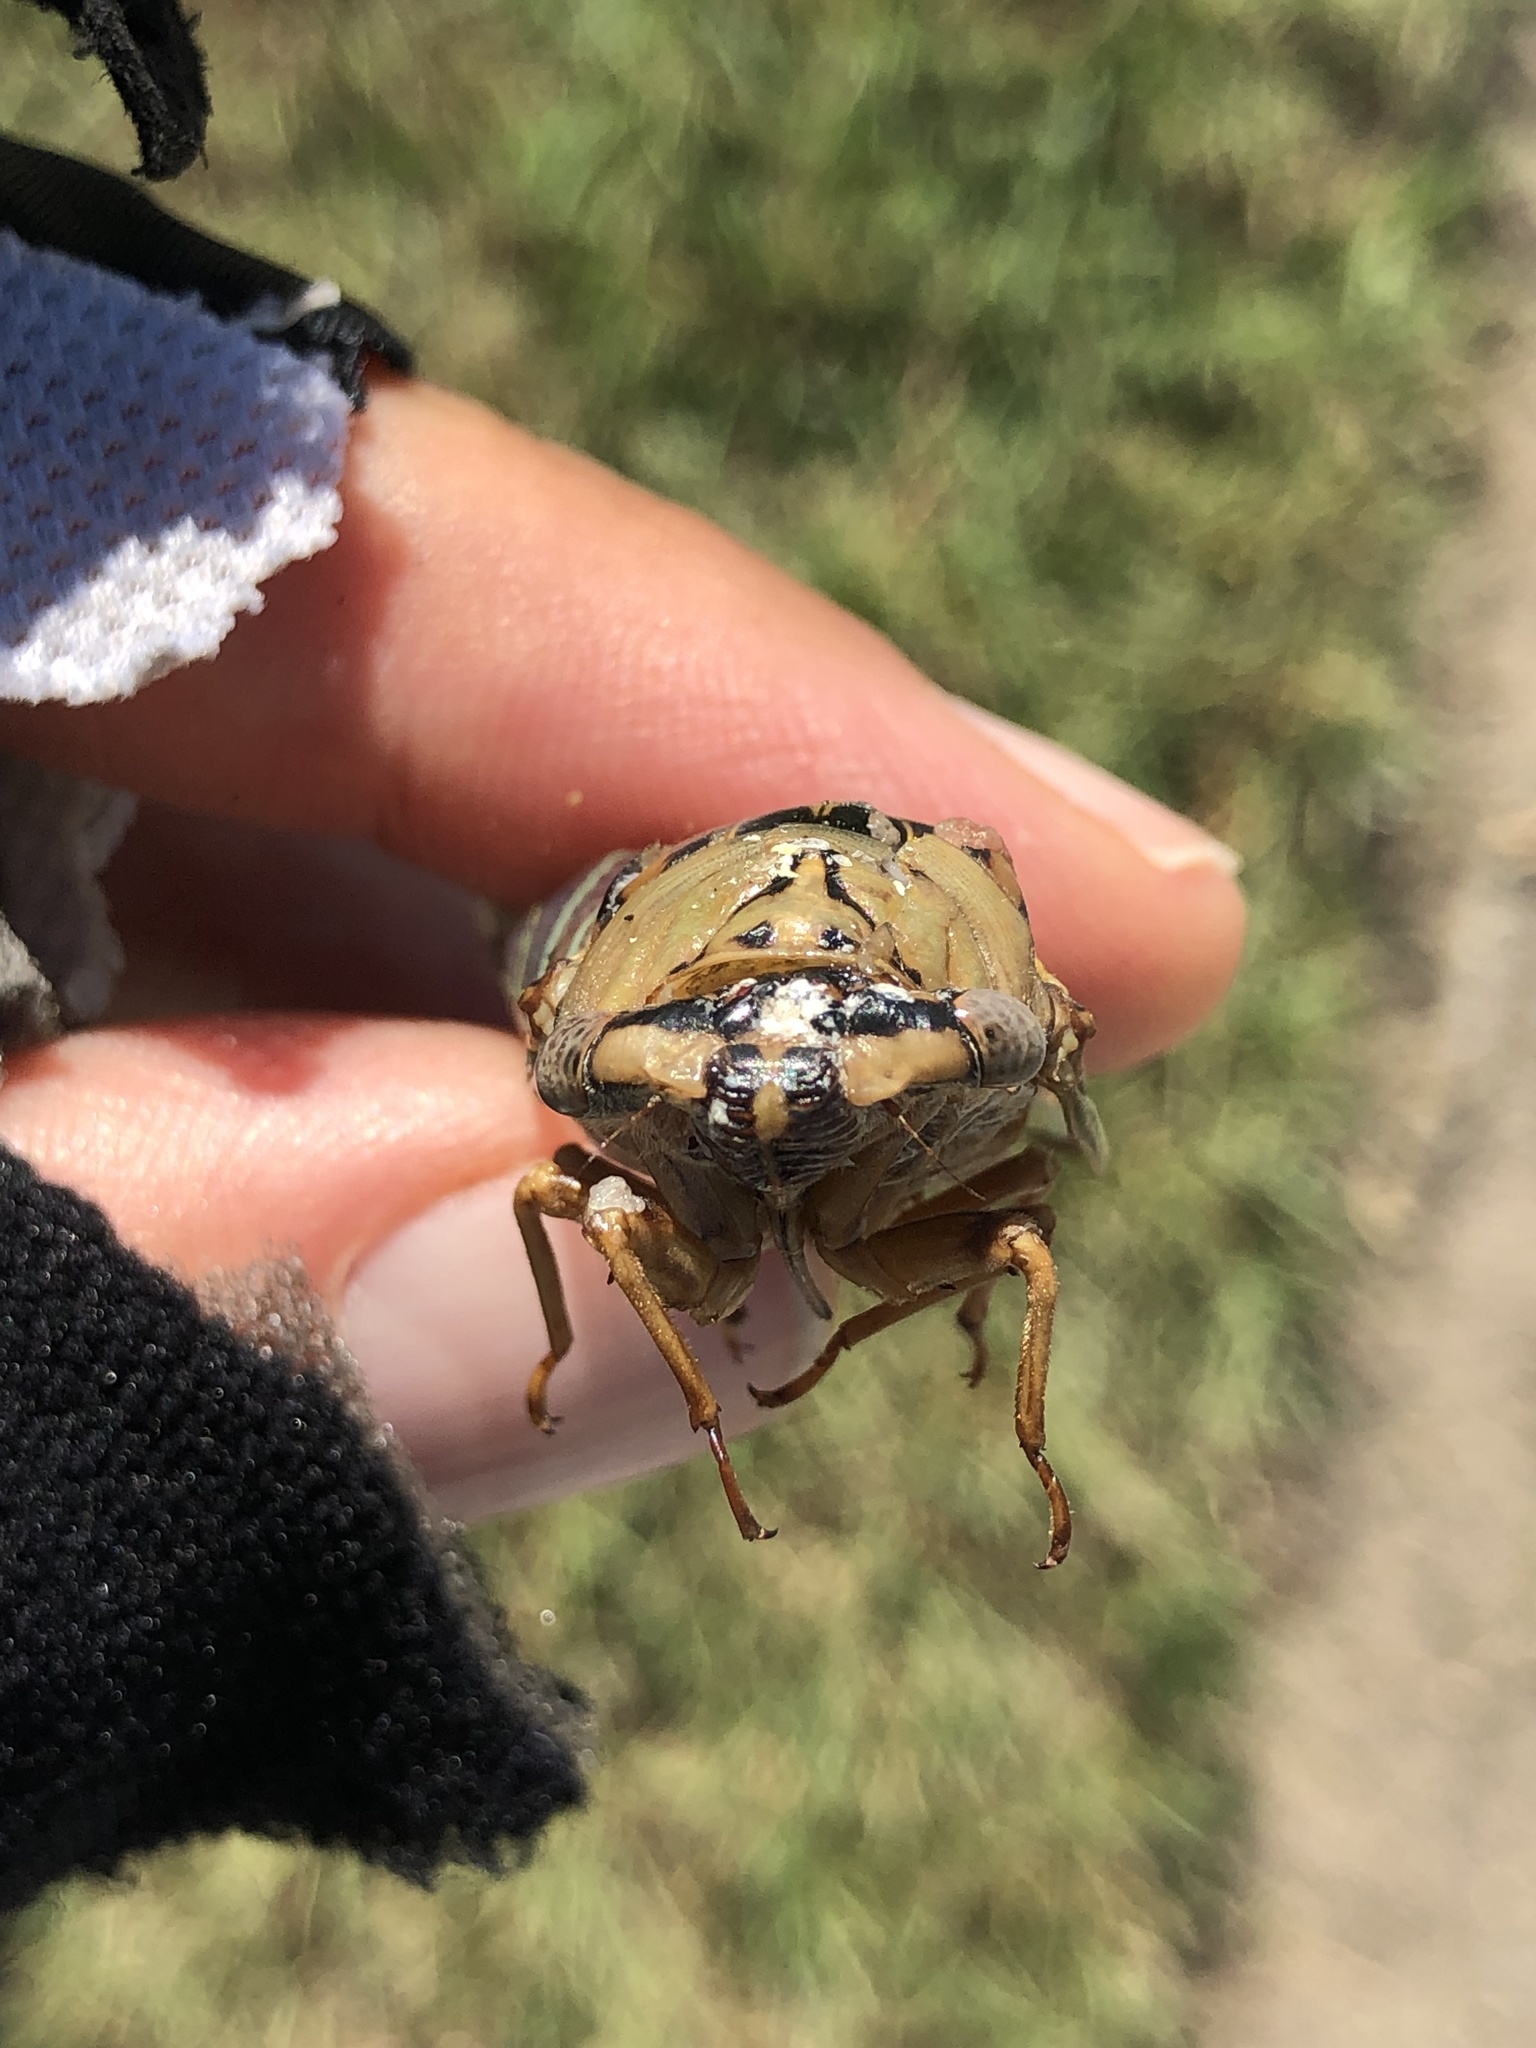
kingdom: Animalia
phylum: Arthropoda
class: Insecta
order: Hemiptera
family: Cicadidae
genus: Megatibicen
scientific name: Megatibicen resh
